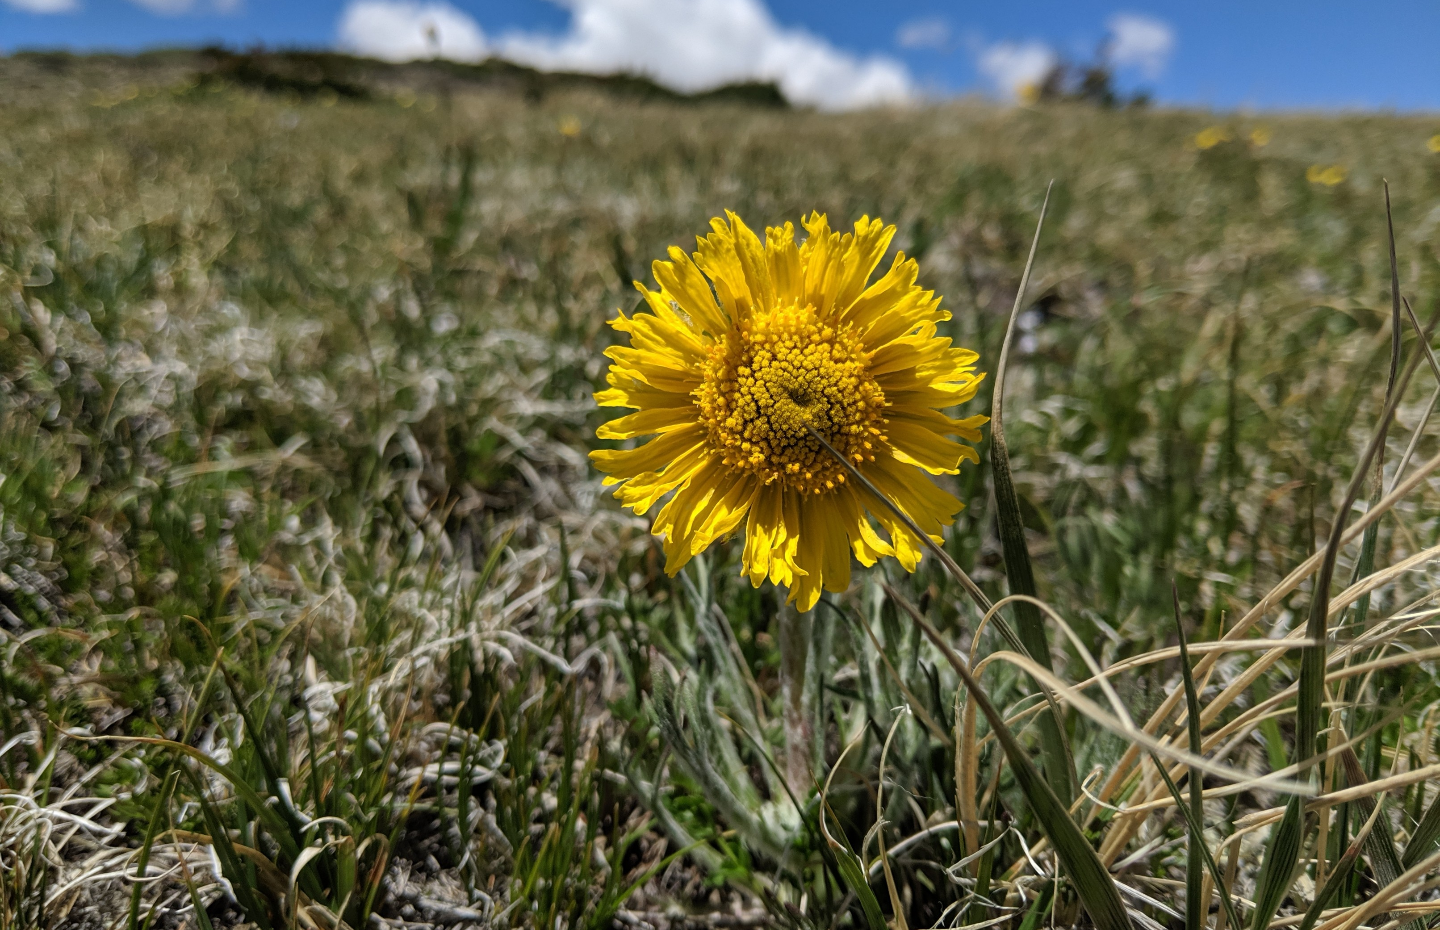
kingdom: Plantae
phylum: Tracheophyta
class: Magnoliopsida
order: Asterales
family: Asteraceae
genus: Hymenoxys
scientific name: Hymenoxys grandiflora
